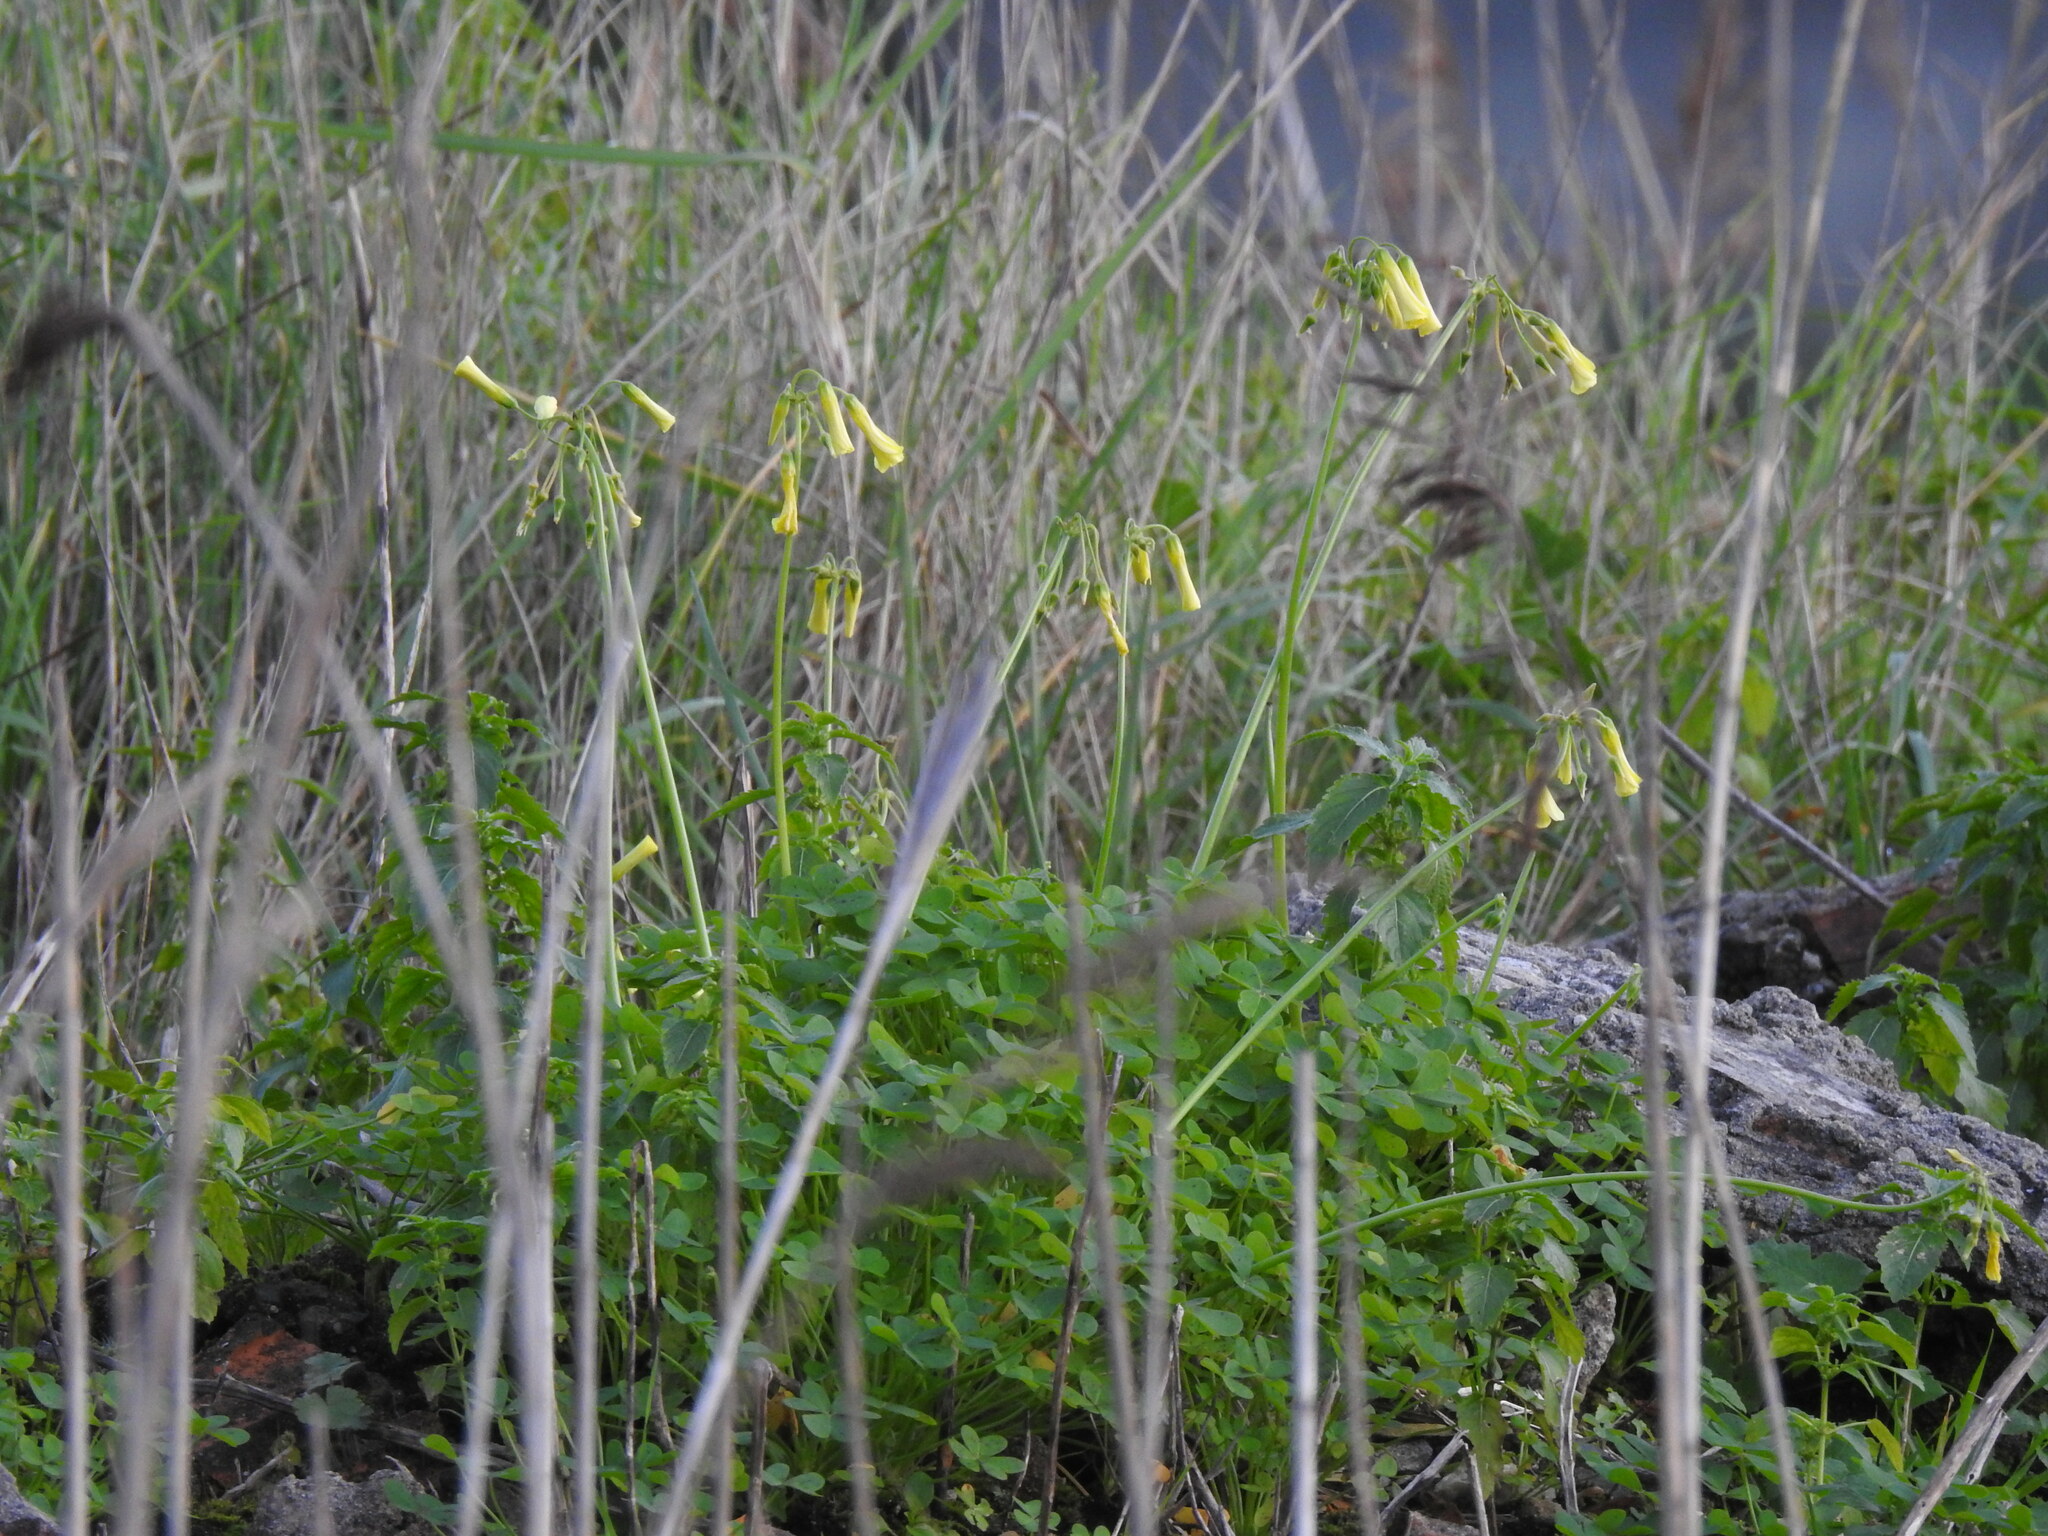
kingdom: Plantae
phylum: Tracheophyta
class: Magnoliopsida
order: Oxalidales
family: Oxalidaceae
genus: Oxalis
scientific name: Oxalis pes-caprae
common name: Bermuda-buttercup
